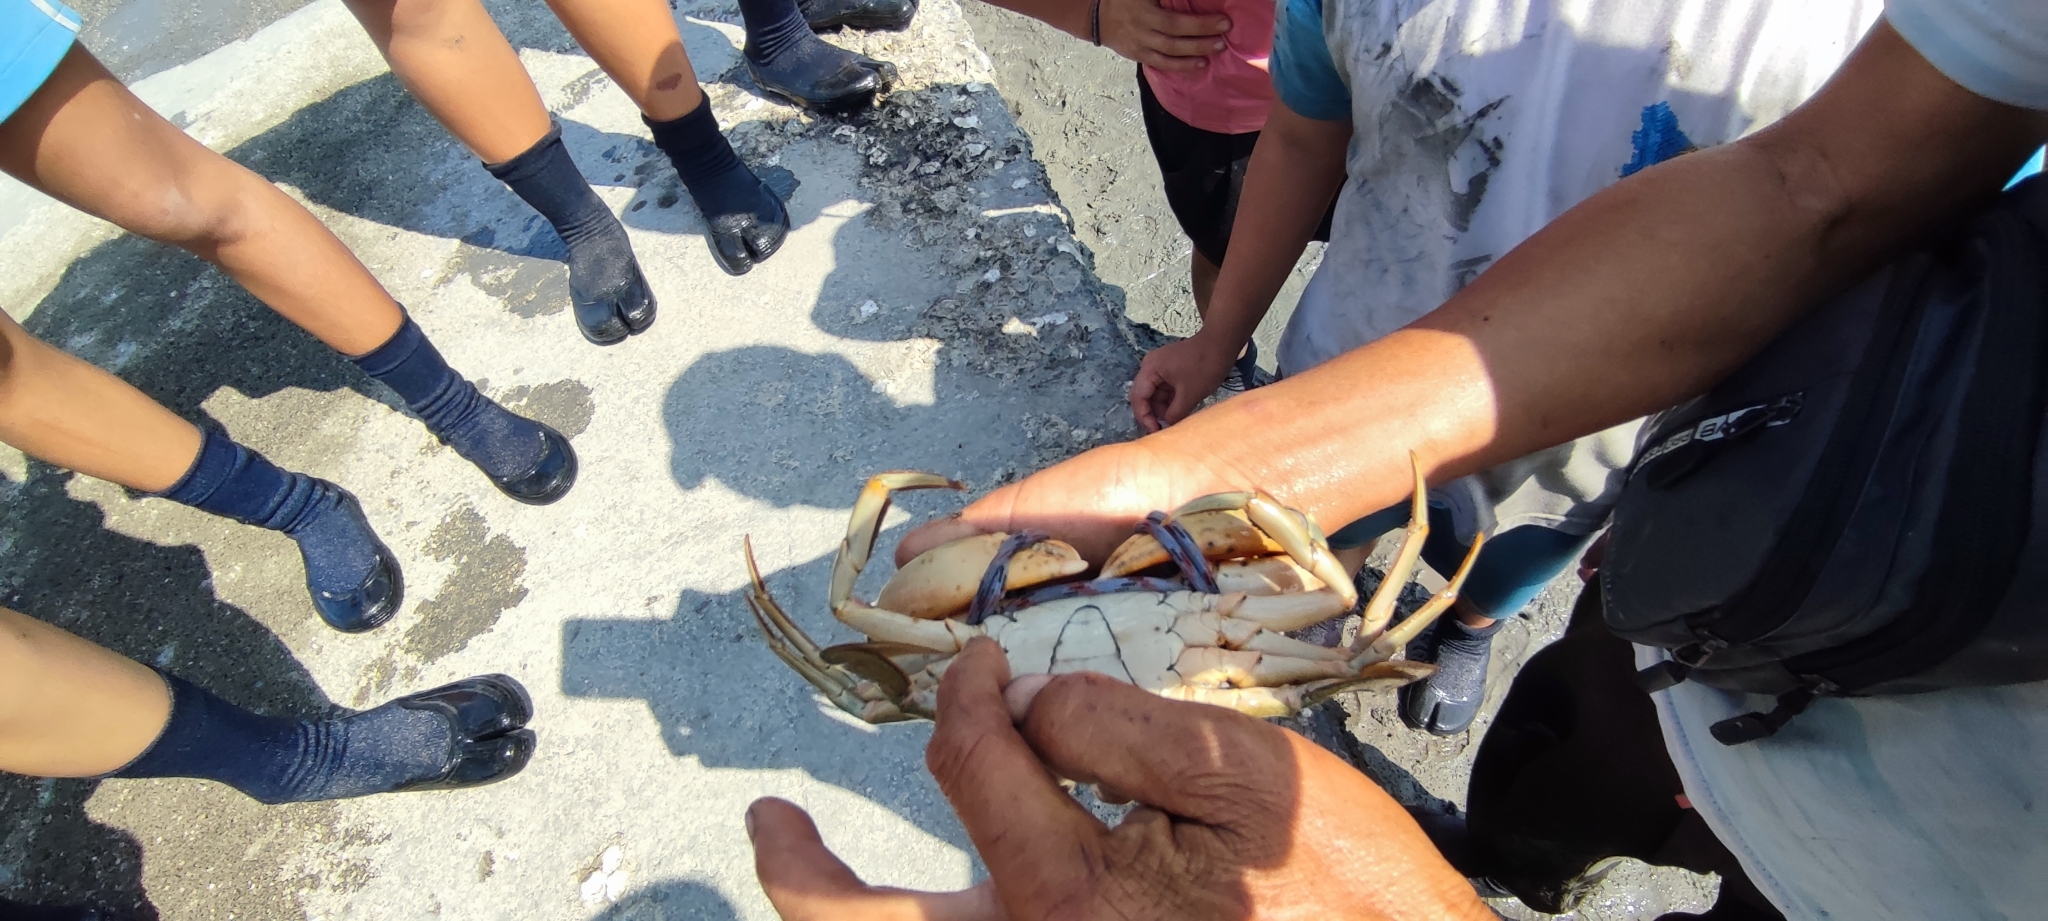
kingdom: Animalia
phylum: Arthropoda
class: Malacostraca
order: Decapoda
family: Portunidae
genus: Scylla
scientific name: Scylla paramamosain
